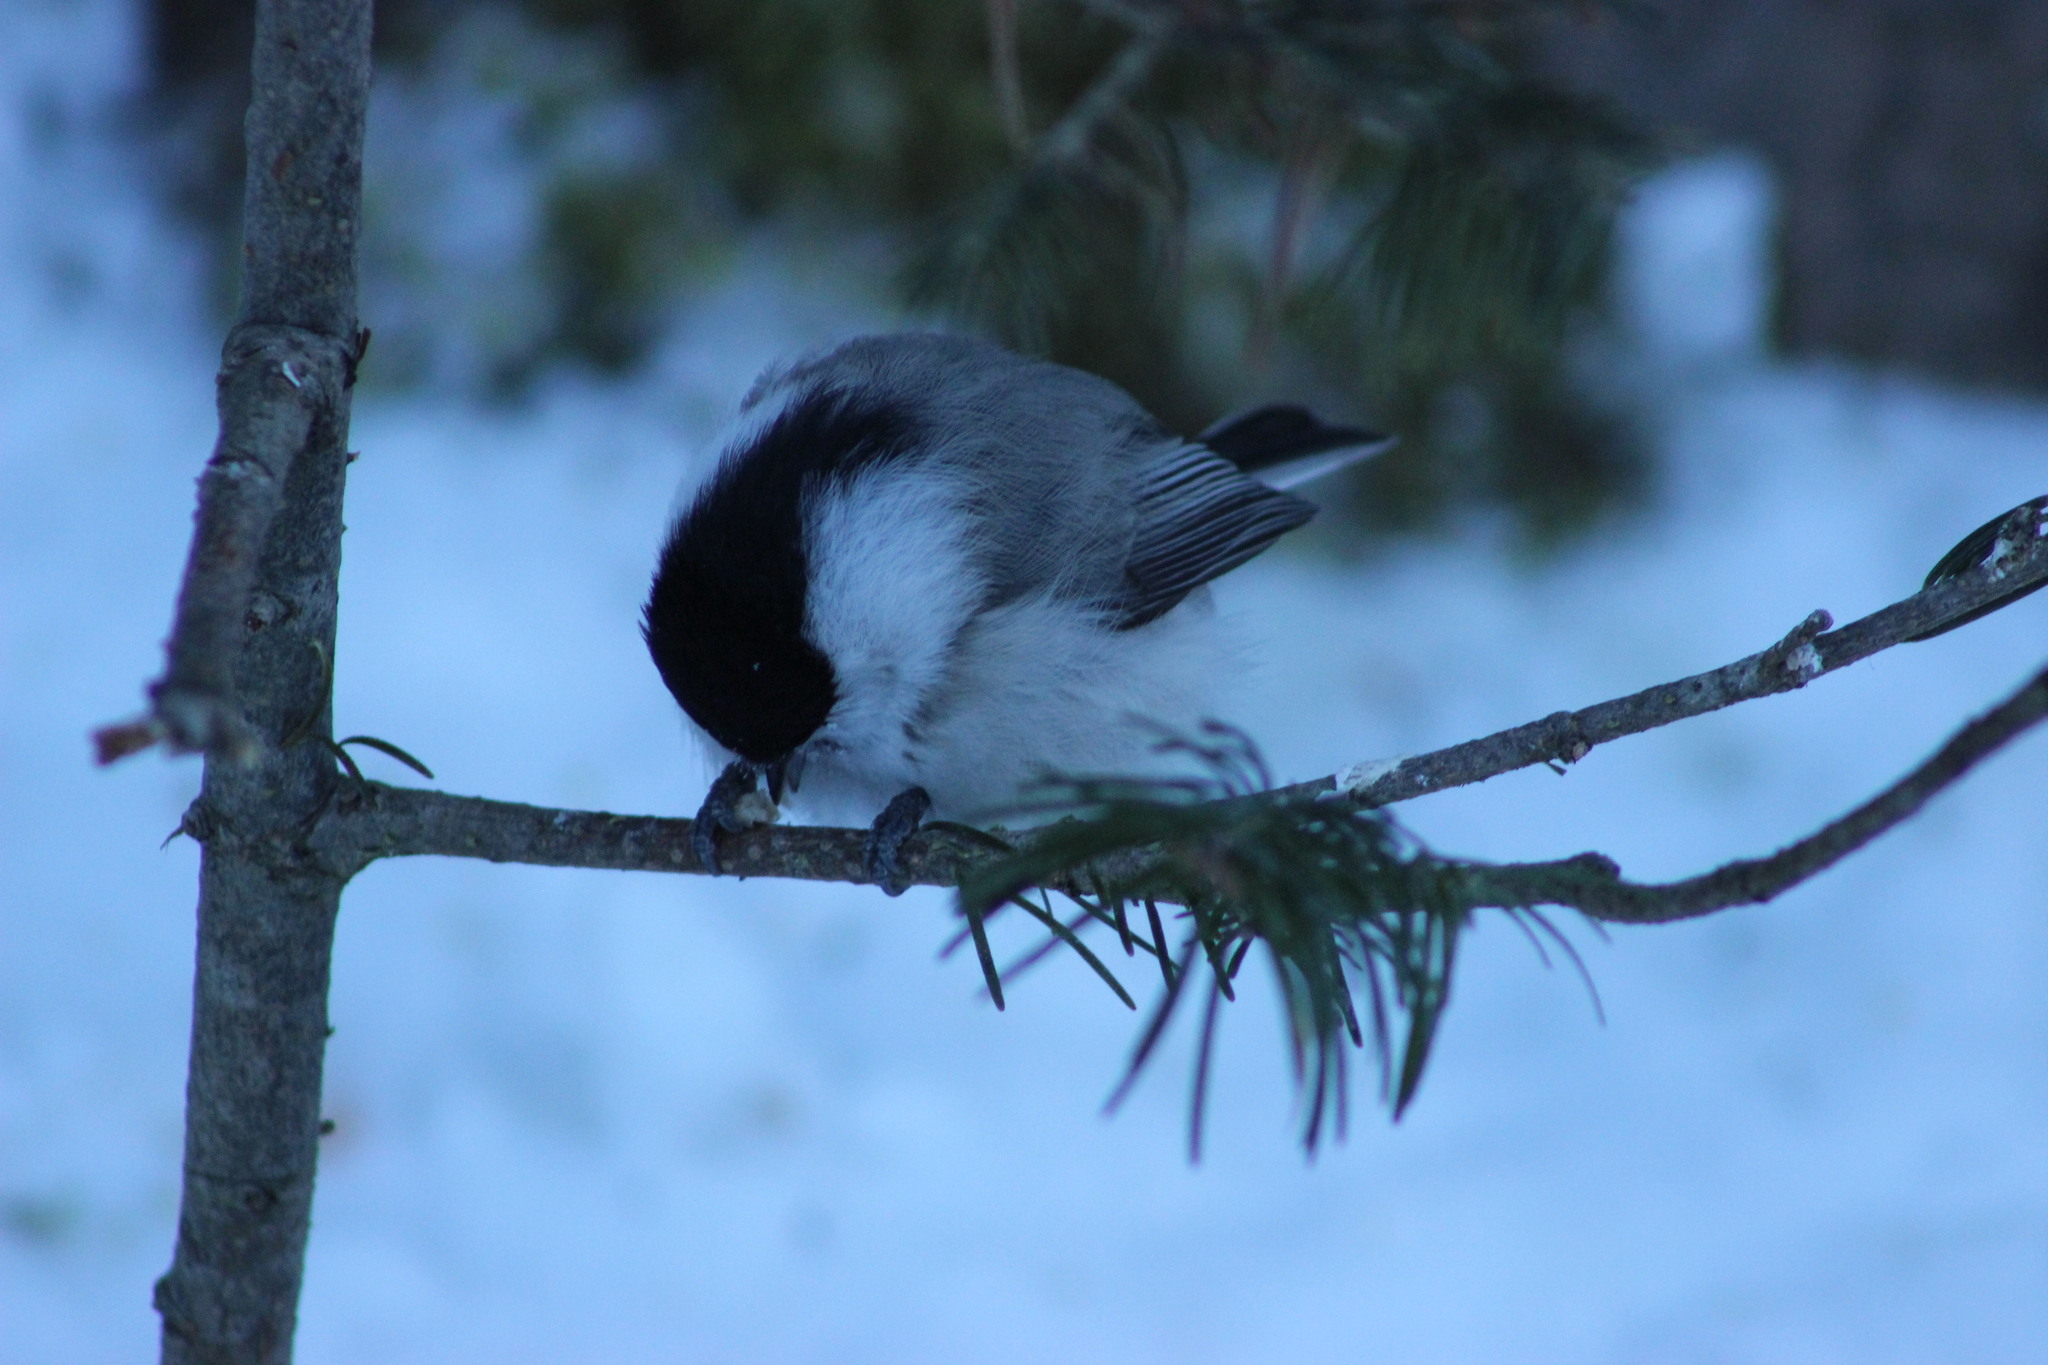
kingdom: Animalia
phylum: Chordata
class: Aves
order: Passeriformes
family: Paridae
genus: Poecile
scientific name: Poecile montanus
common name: Willow tit
